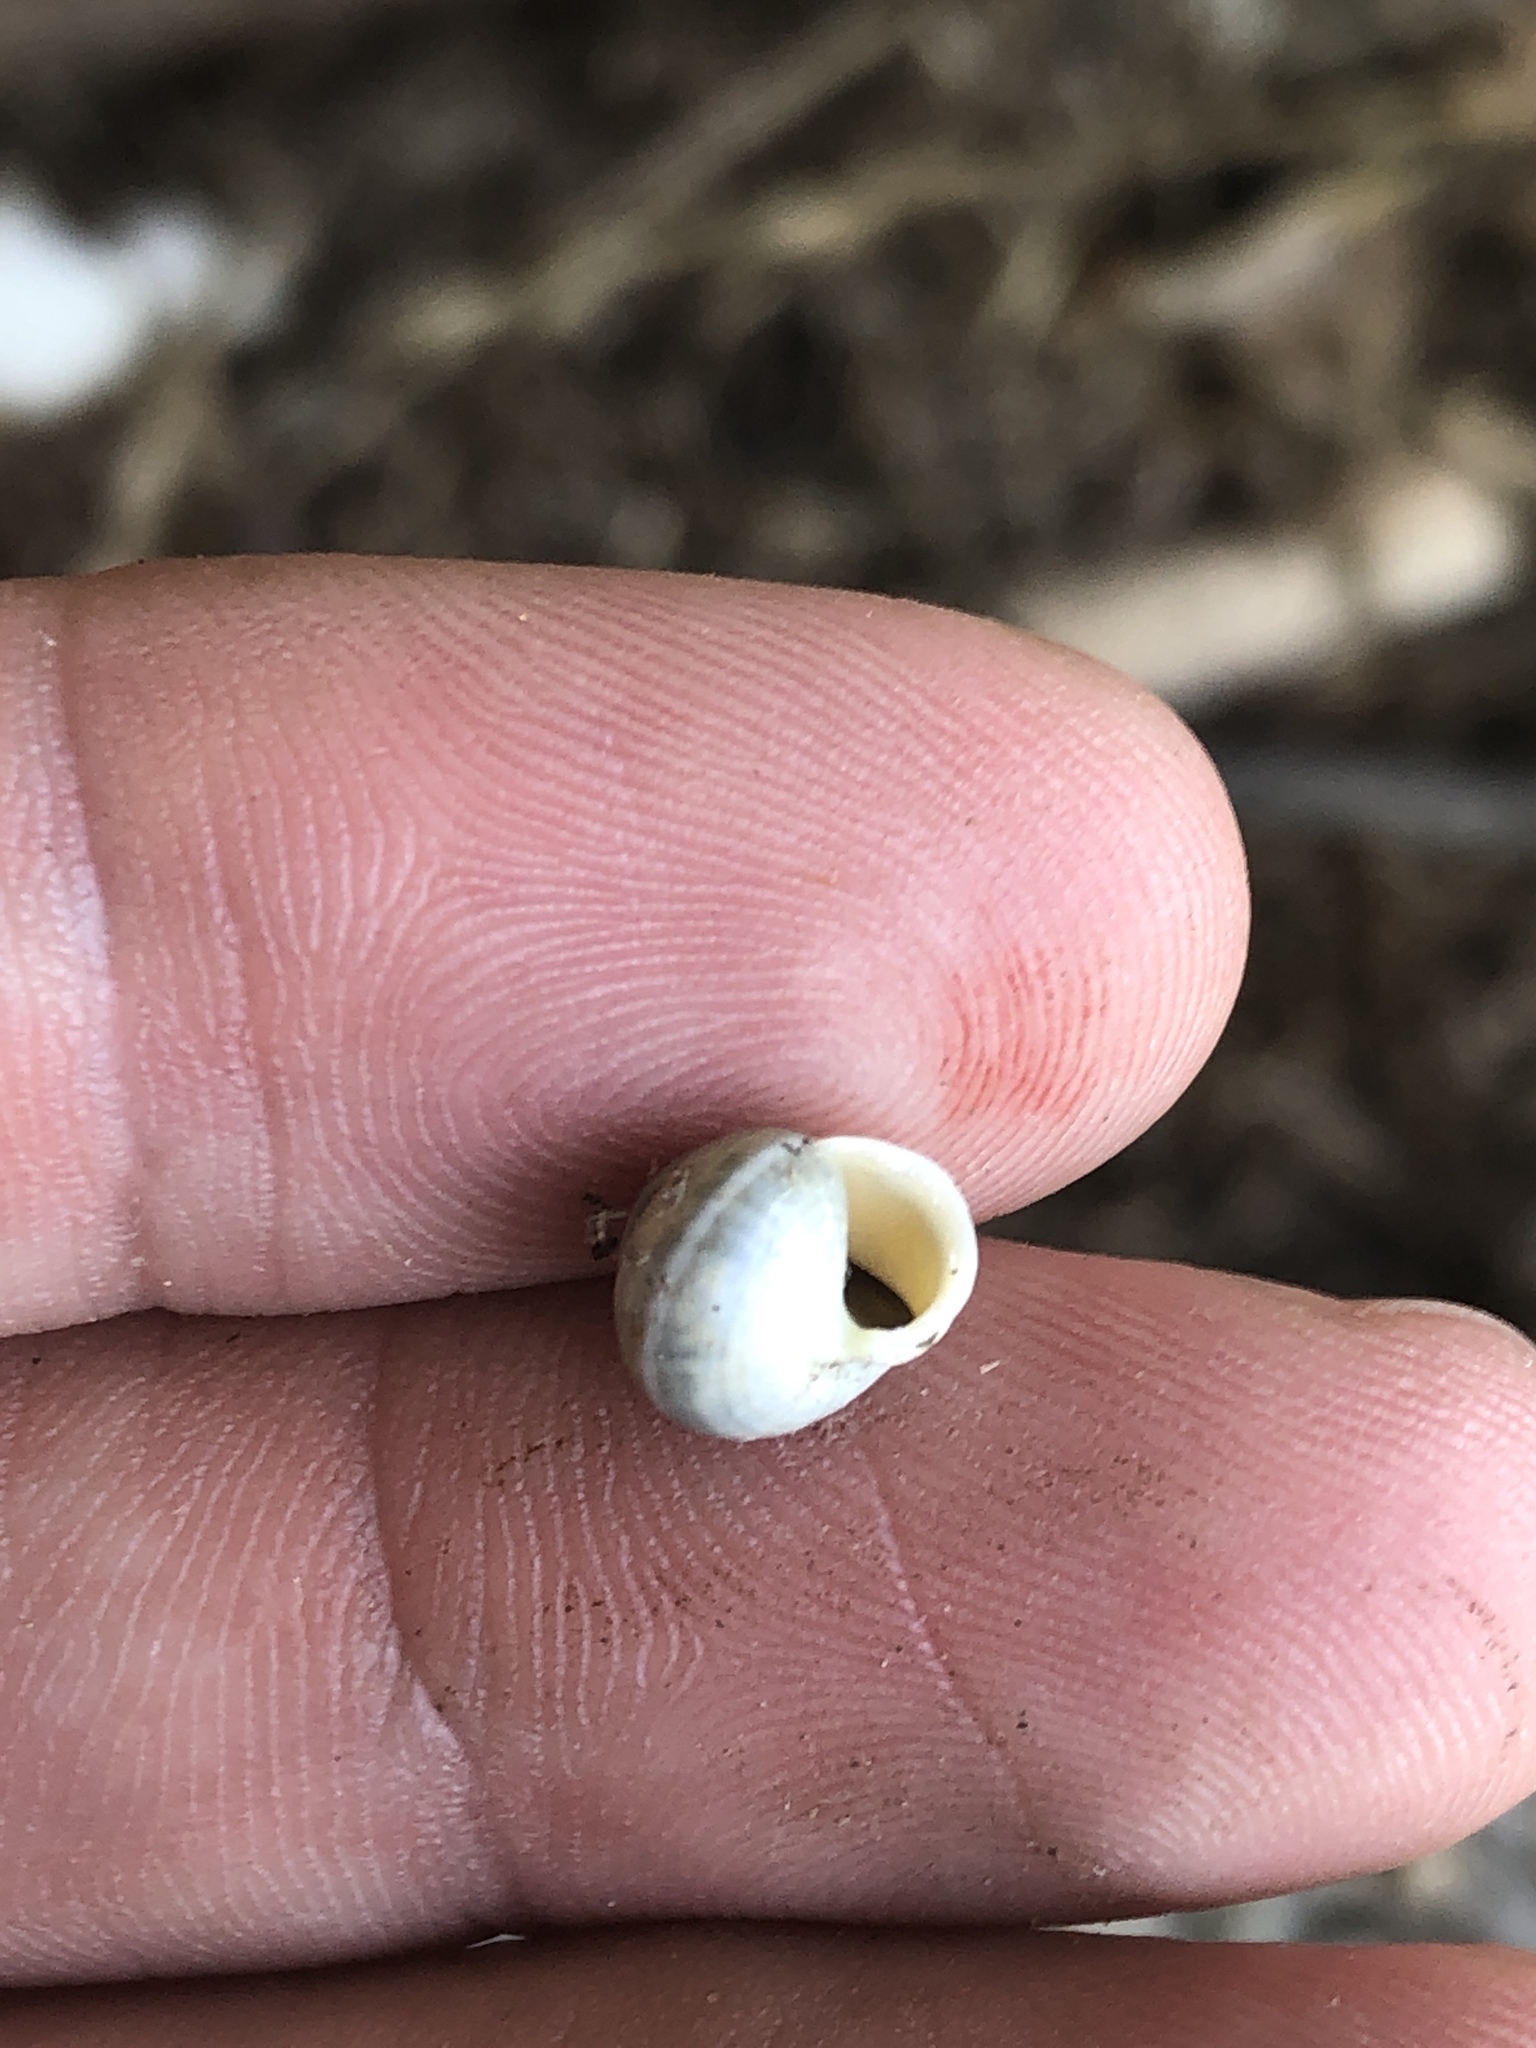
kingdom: Animalia
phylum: Mollusca
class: Gastropoda
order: Cycloneritida
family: Helicinidae
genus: Helicina
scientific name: Helicina orbiculata
